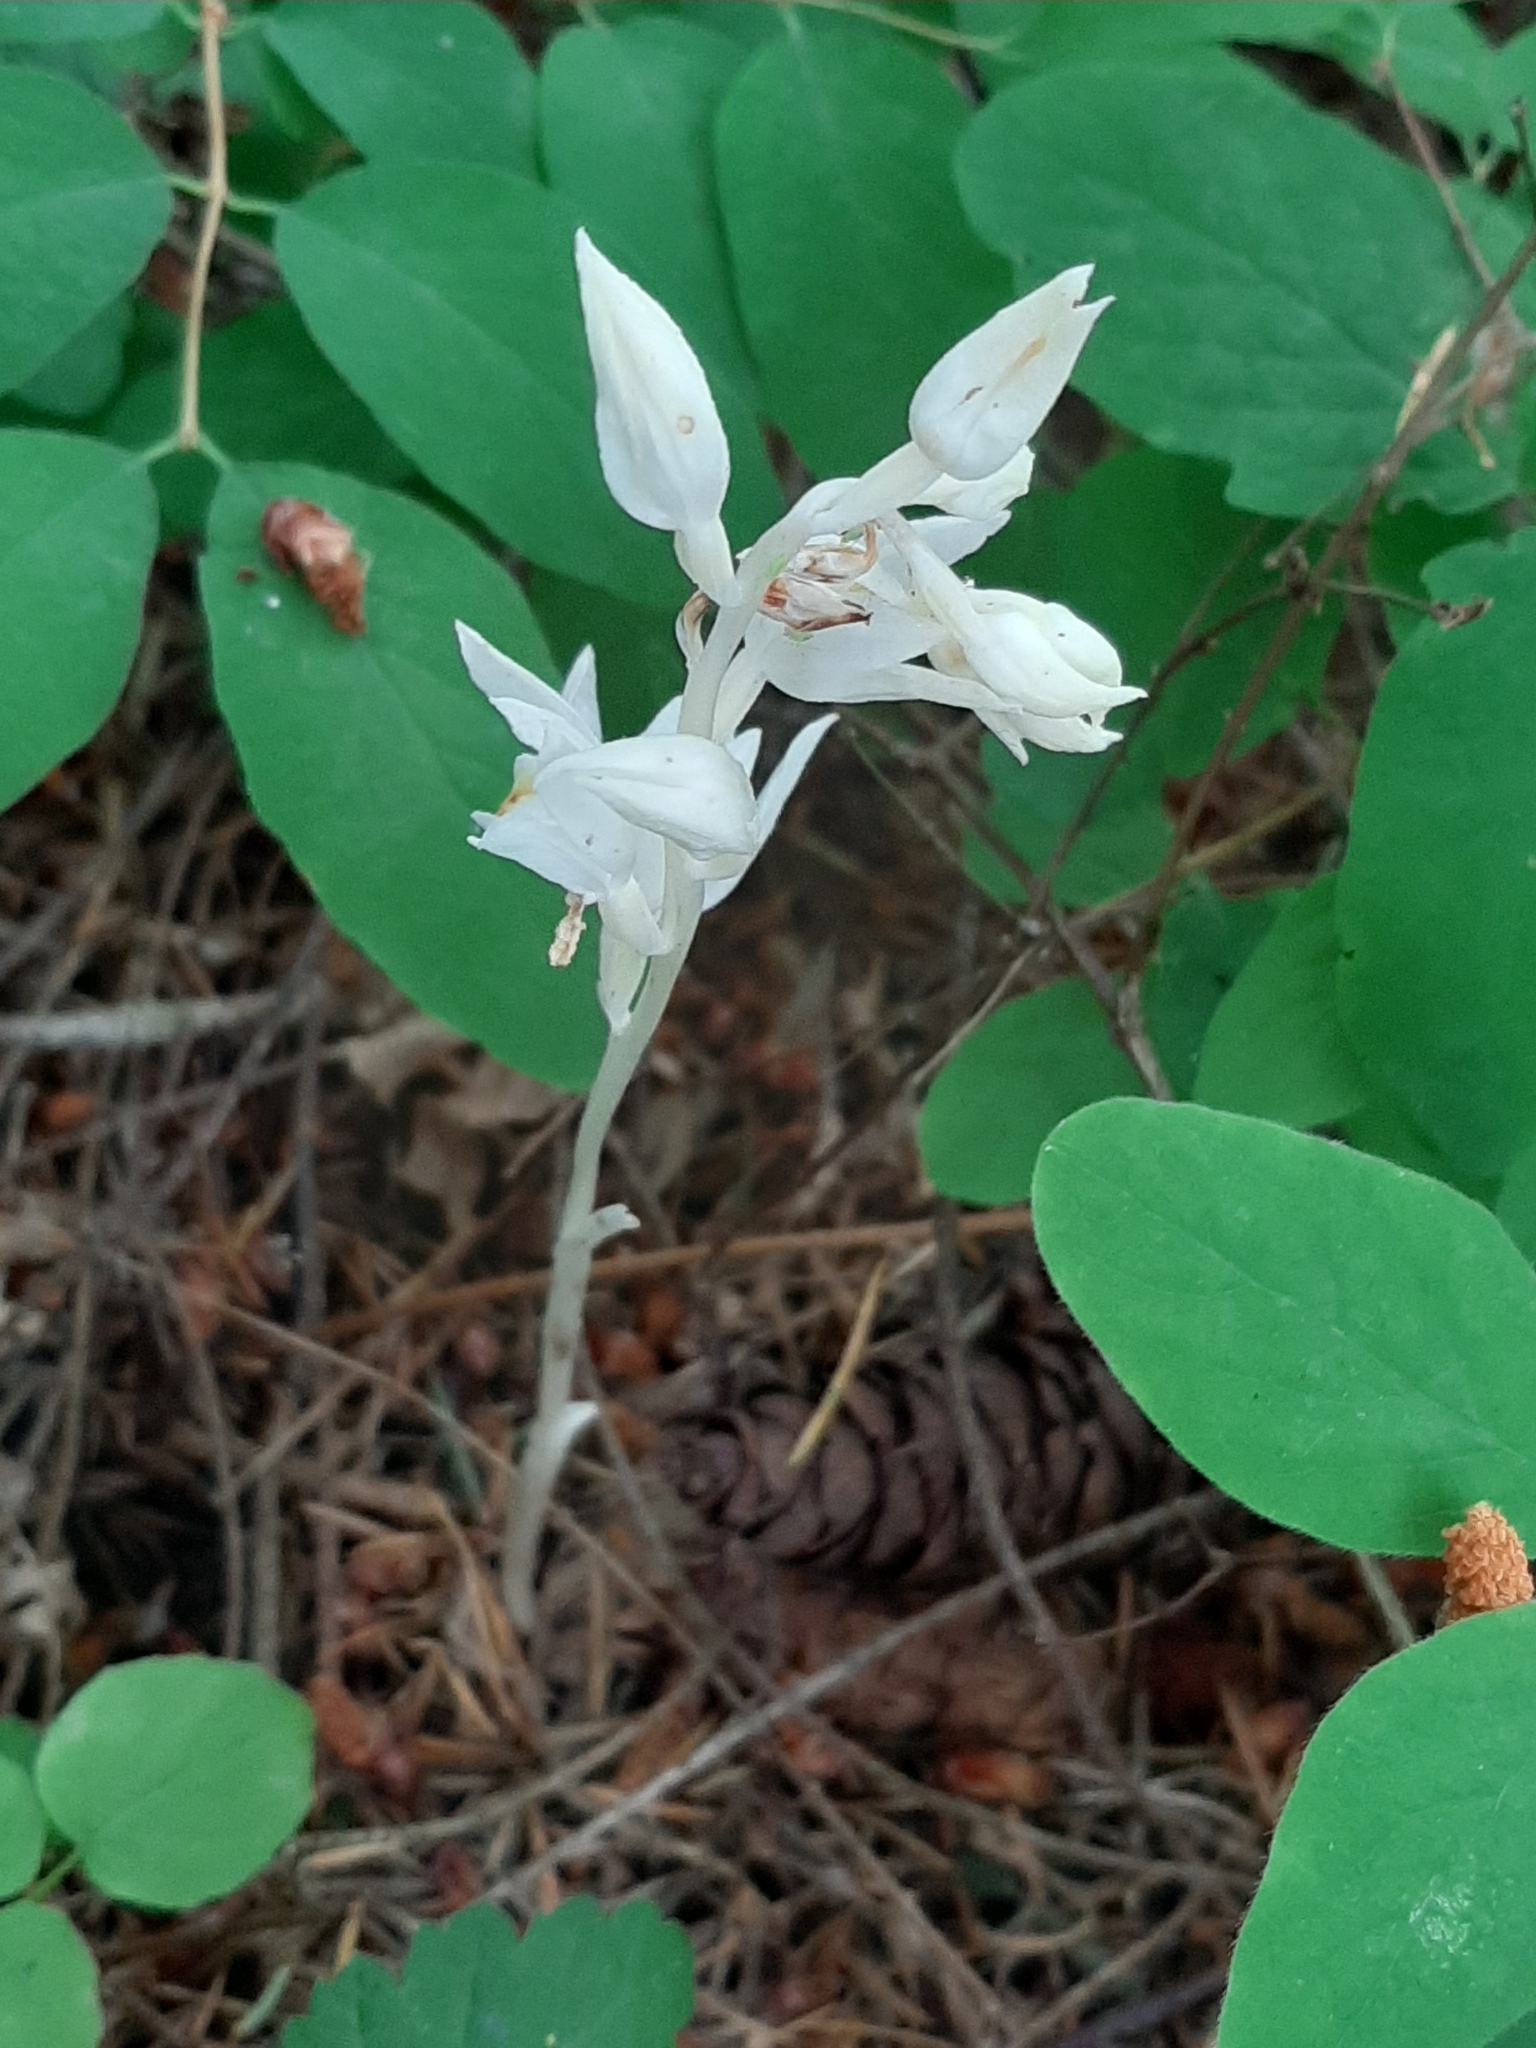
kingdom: Plantae
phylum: Tracheophyta
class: Liliopsida
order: Asparagales
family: Orchidaceae
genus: Cephalanthera
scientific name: Cephalanthera austiniae
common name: Phantom orchid
